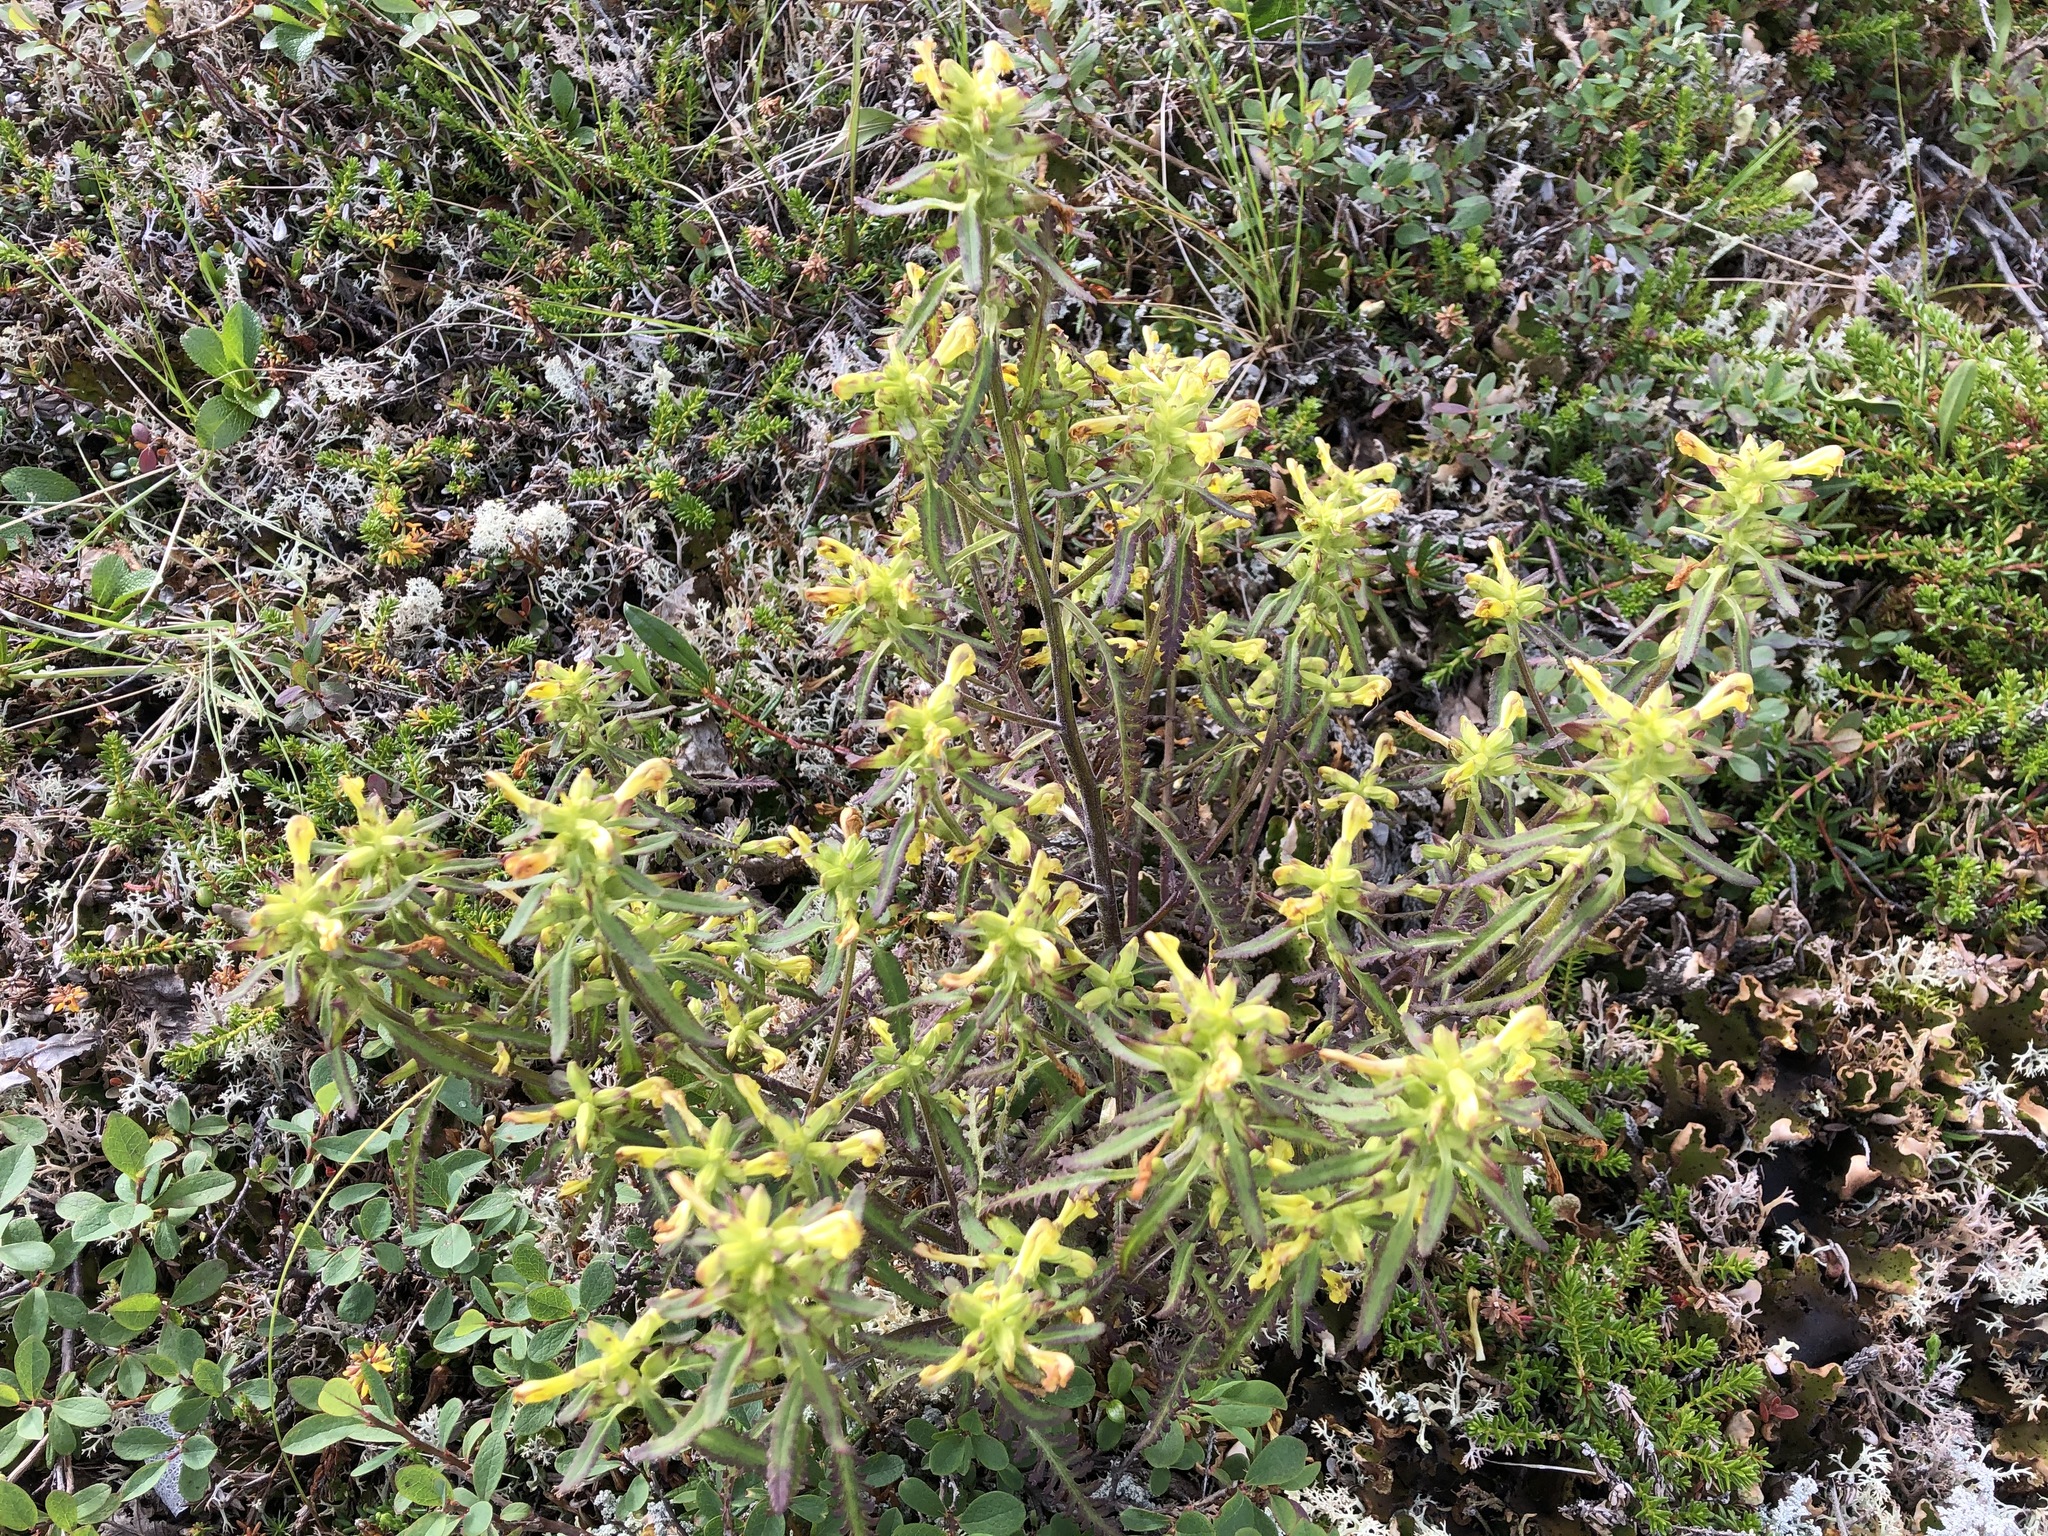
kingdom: Plantae
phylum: Tracheophyta
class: Magnoliopsida
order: Lamiales
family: Orobanchaceae
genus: Pedicularis
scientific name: Pedicularis labradorica
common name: Labrador lousewort
